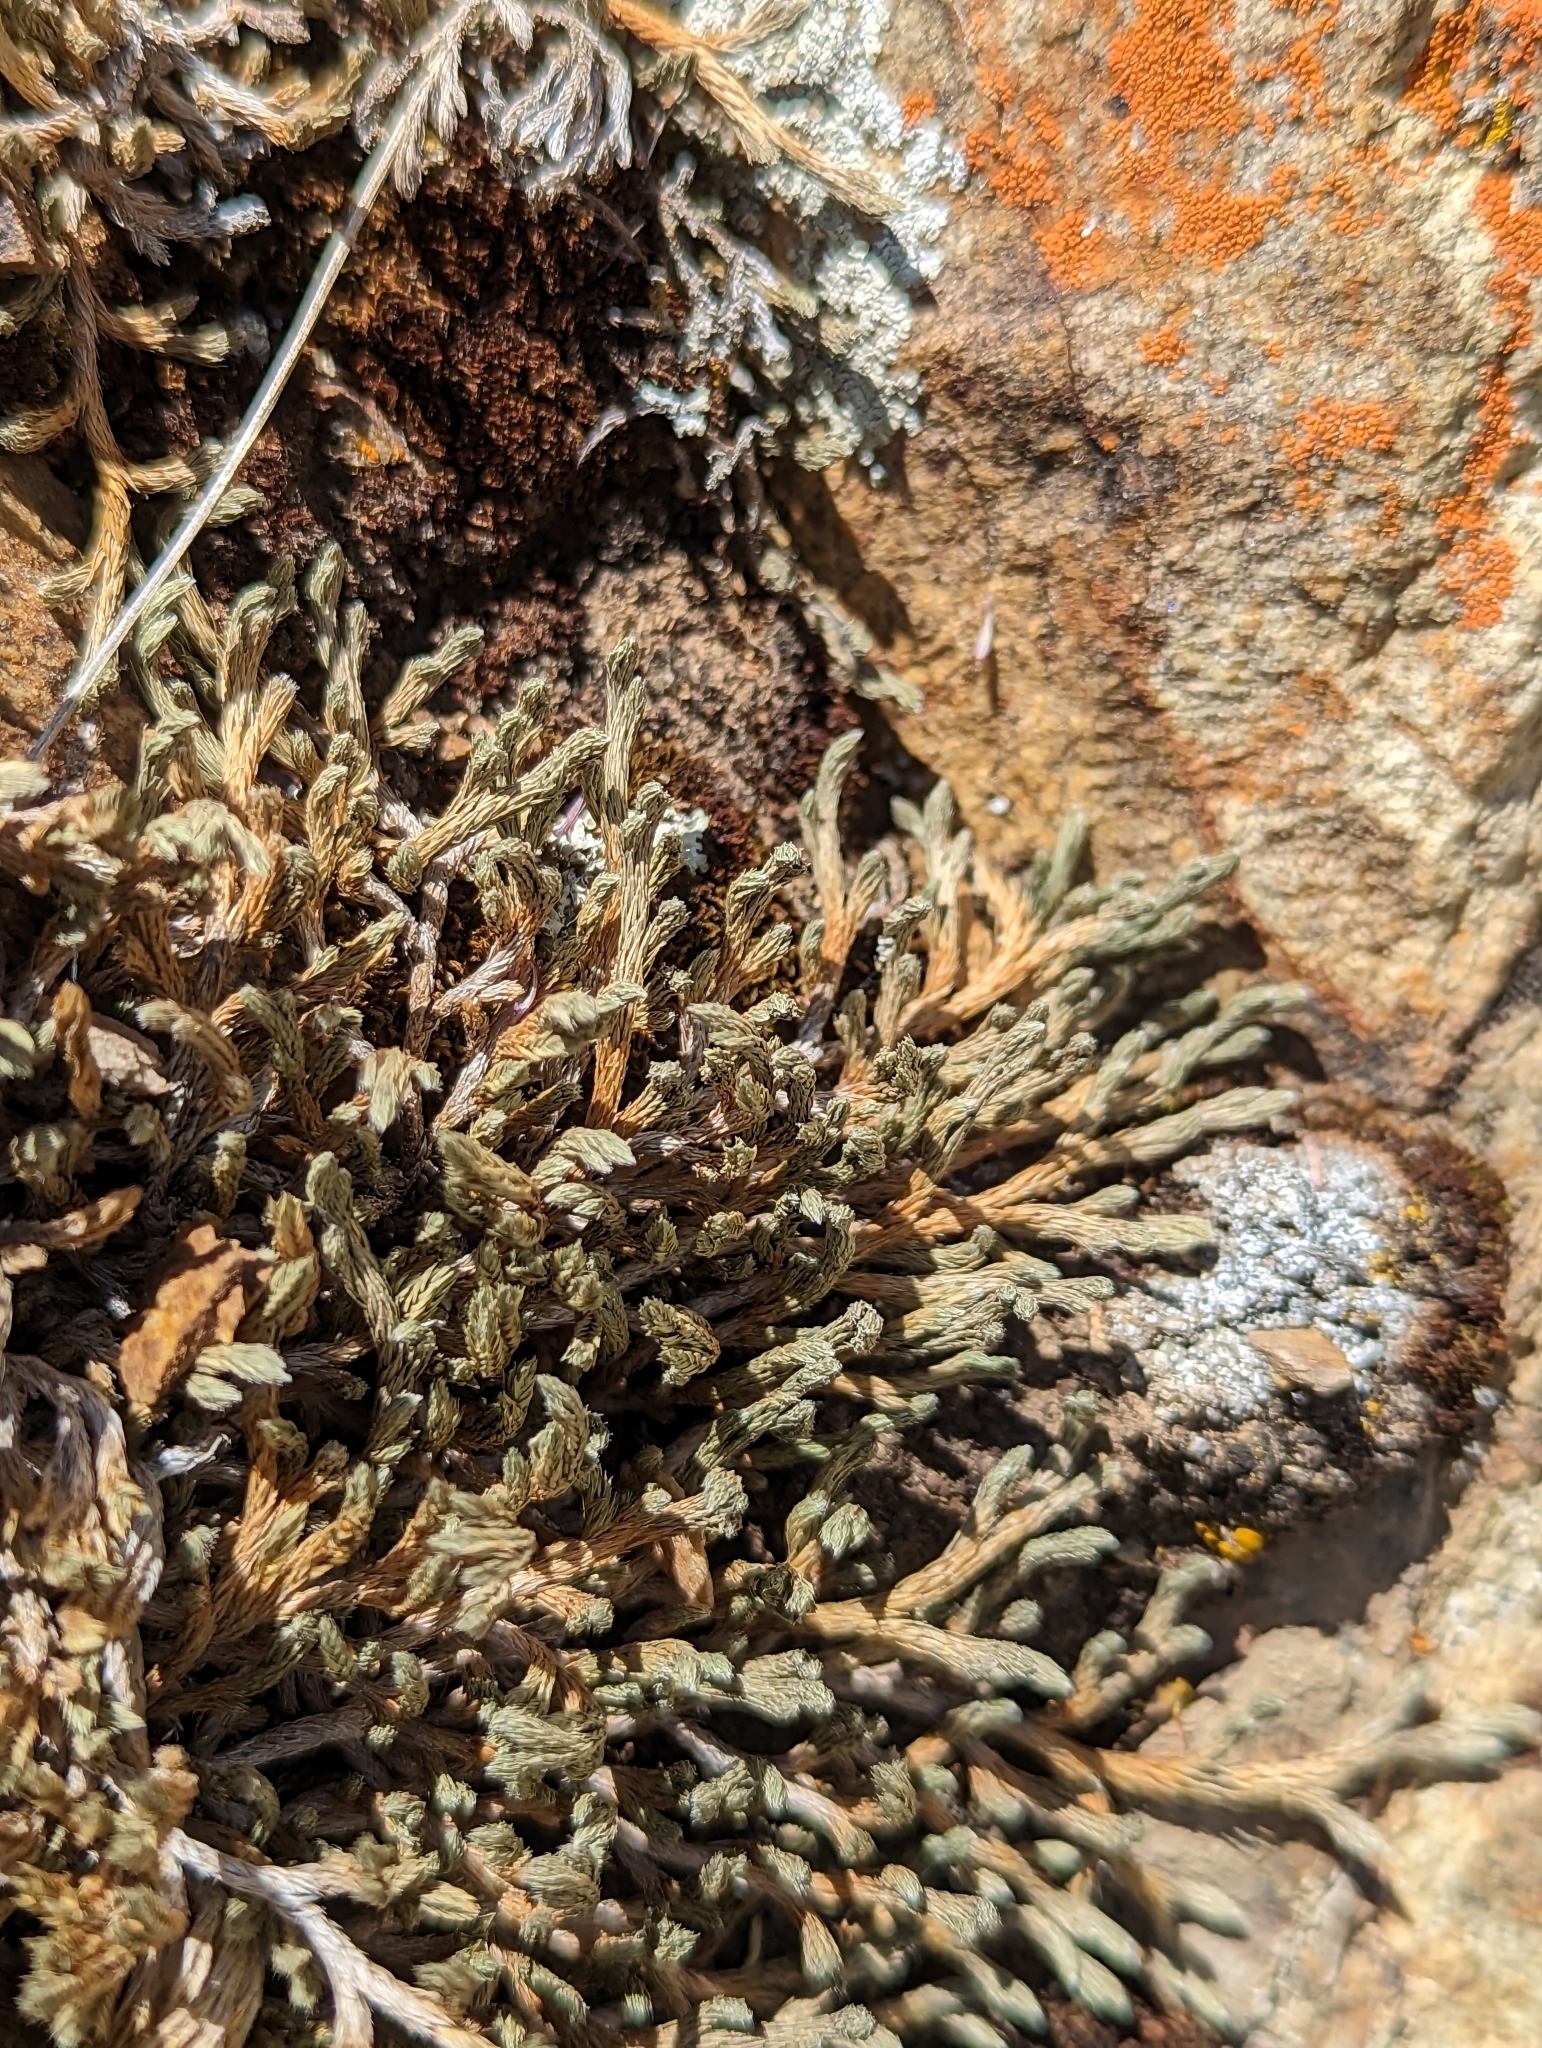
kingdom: Plantae
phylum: Tracheophyta
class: Lycopodiopsida
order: Selaginellales
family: Selaginellaceae
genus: Selaginella
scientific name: Selaginella wallacei
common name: Wallace's selaginella
